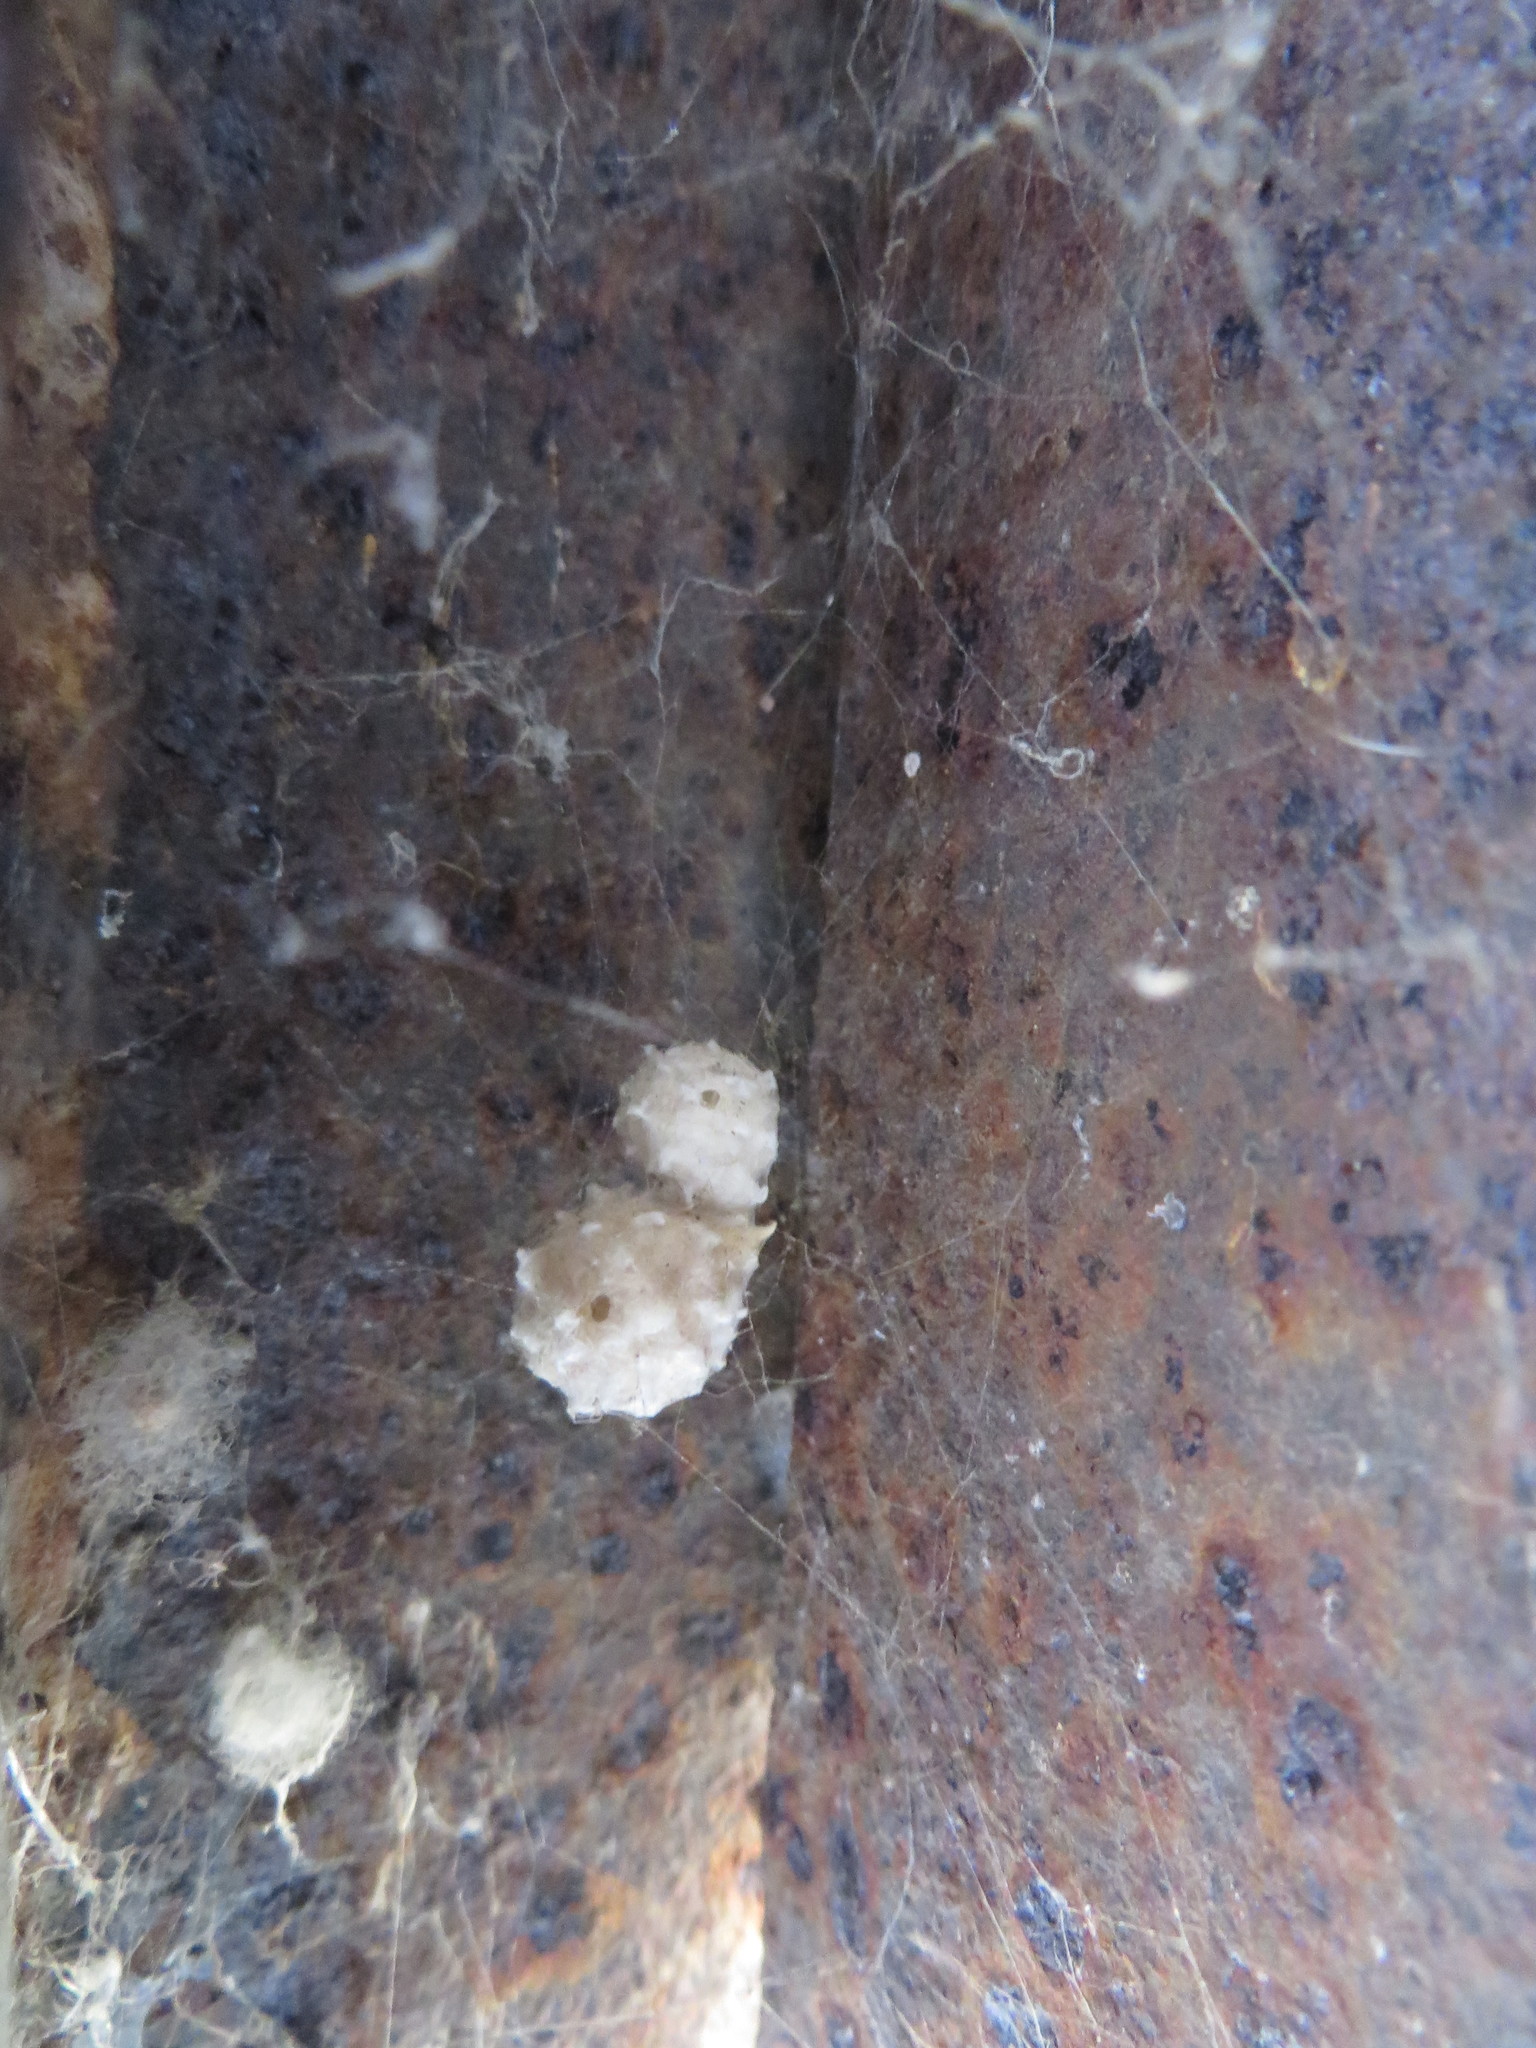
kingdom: Animalia
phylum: Arthropoda
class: Arachnida
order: Araneae
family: Theridiidae
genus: Latrodectus
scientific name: Latrodectus geometricus
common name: Brown widow spider
